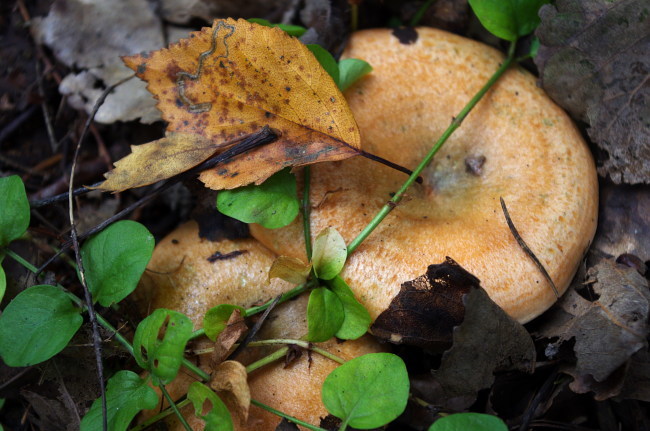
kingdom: Fungi
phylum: Basidiomycota
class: Agaricomycetes
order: Russulales
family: Russulaceae
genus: Lactarius
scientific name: Lactarius deliciosus
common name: Saffron milk-cap
